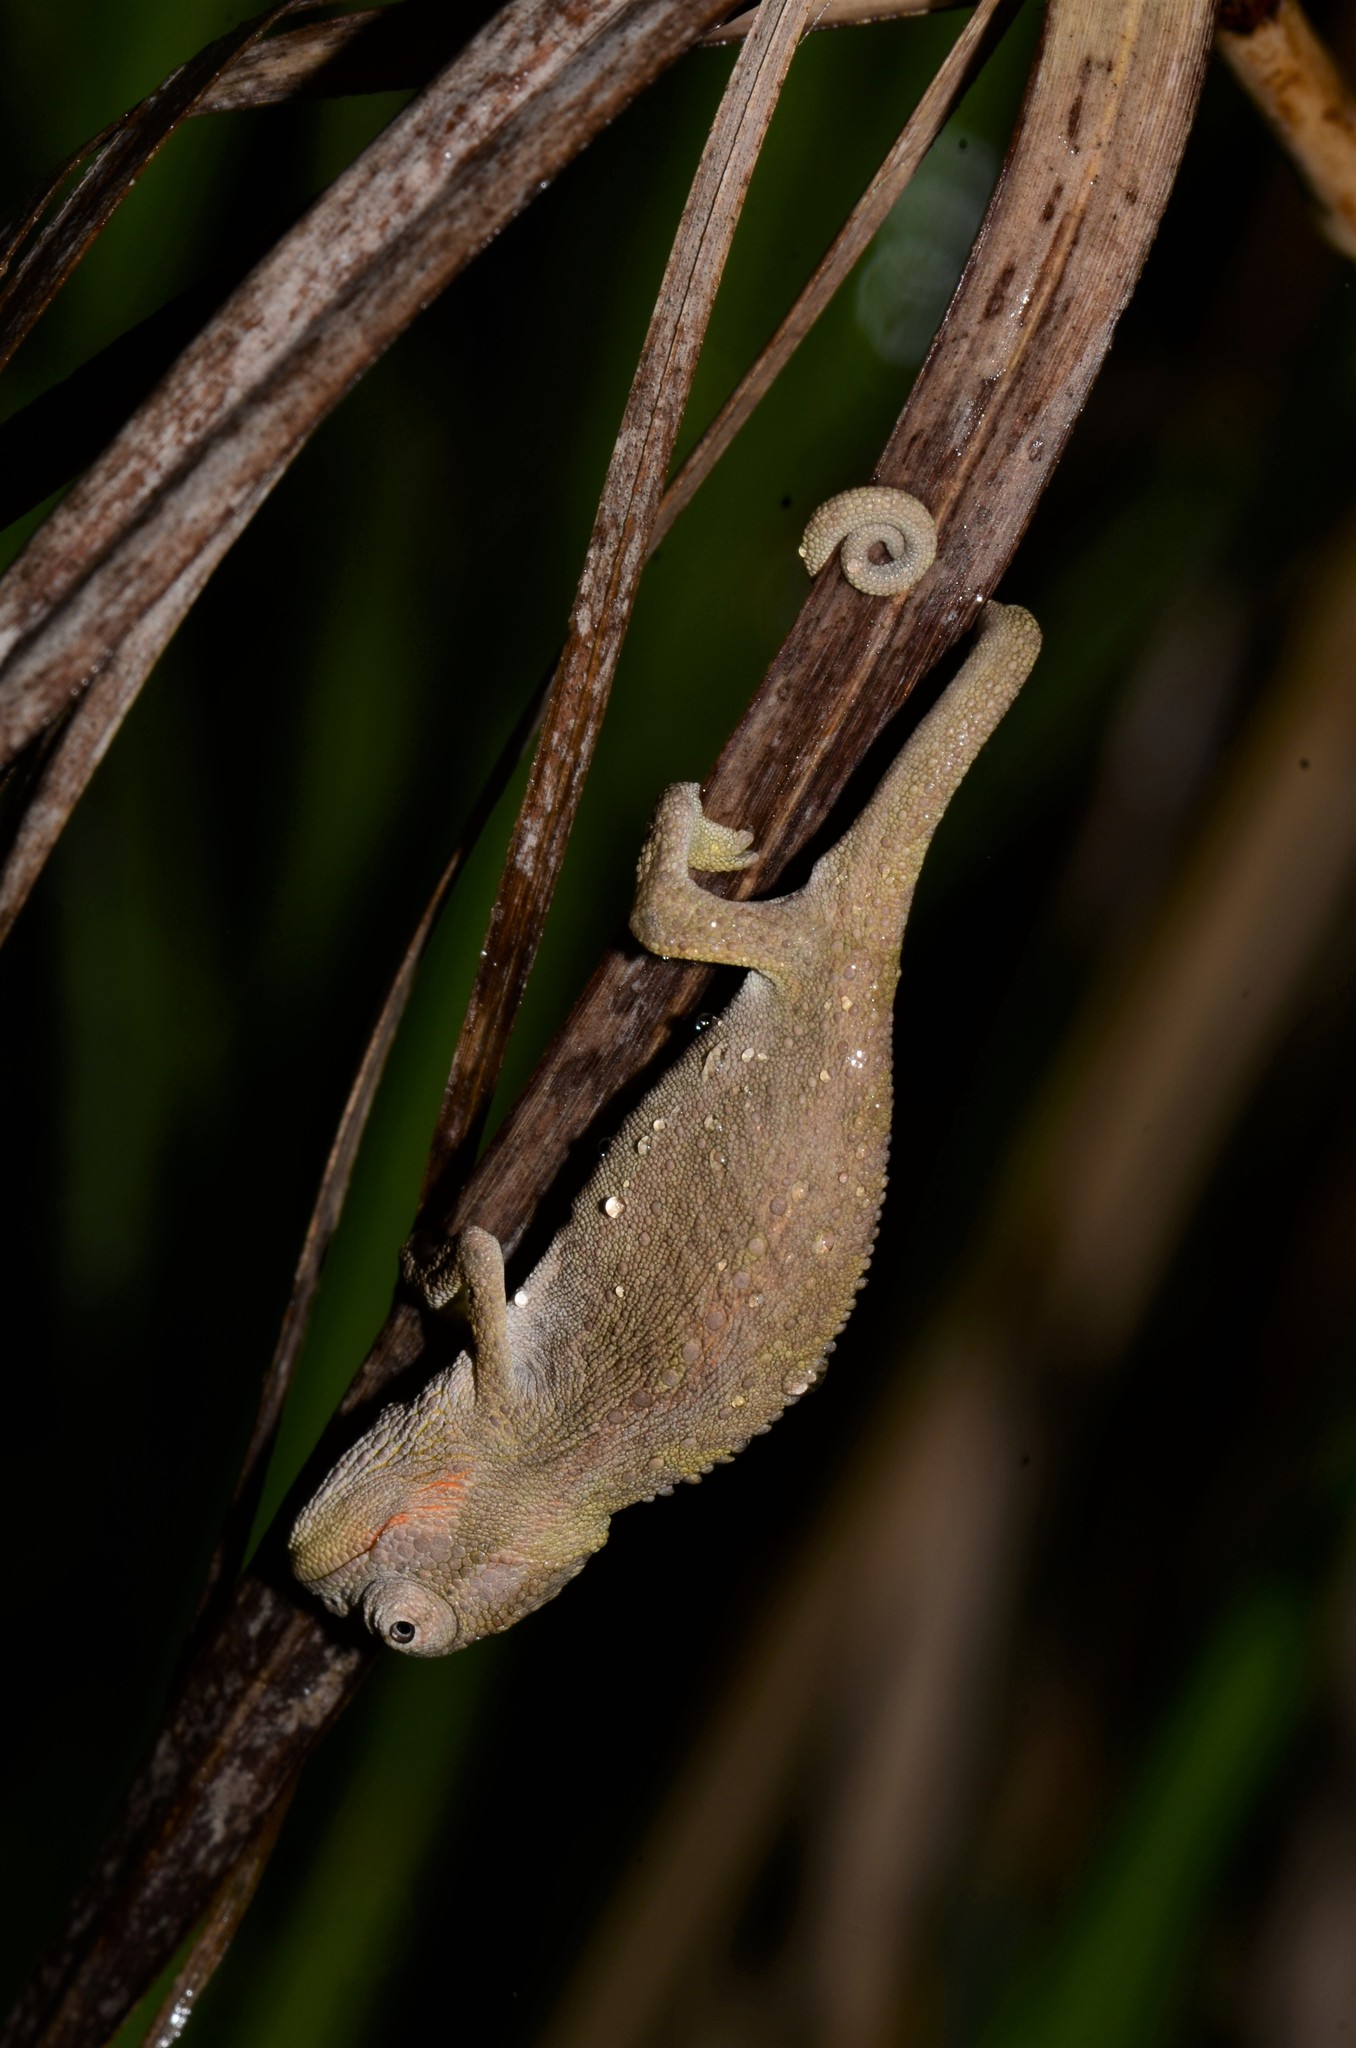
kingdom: Animalia
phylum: Chordata
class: Squamata
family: Chamaeleonidae
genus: Bradypodion
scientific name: Bradypodion pumilum
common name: Cape dwarf chameleon
